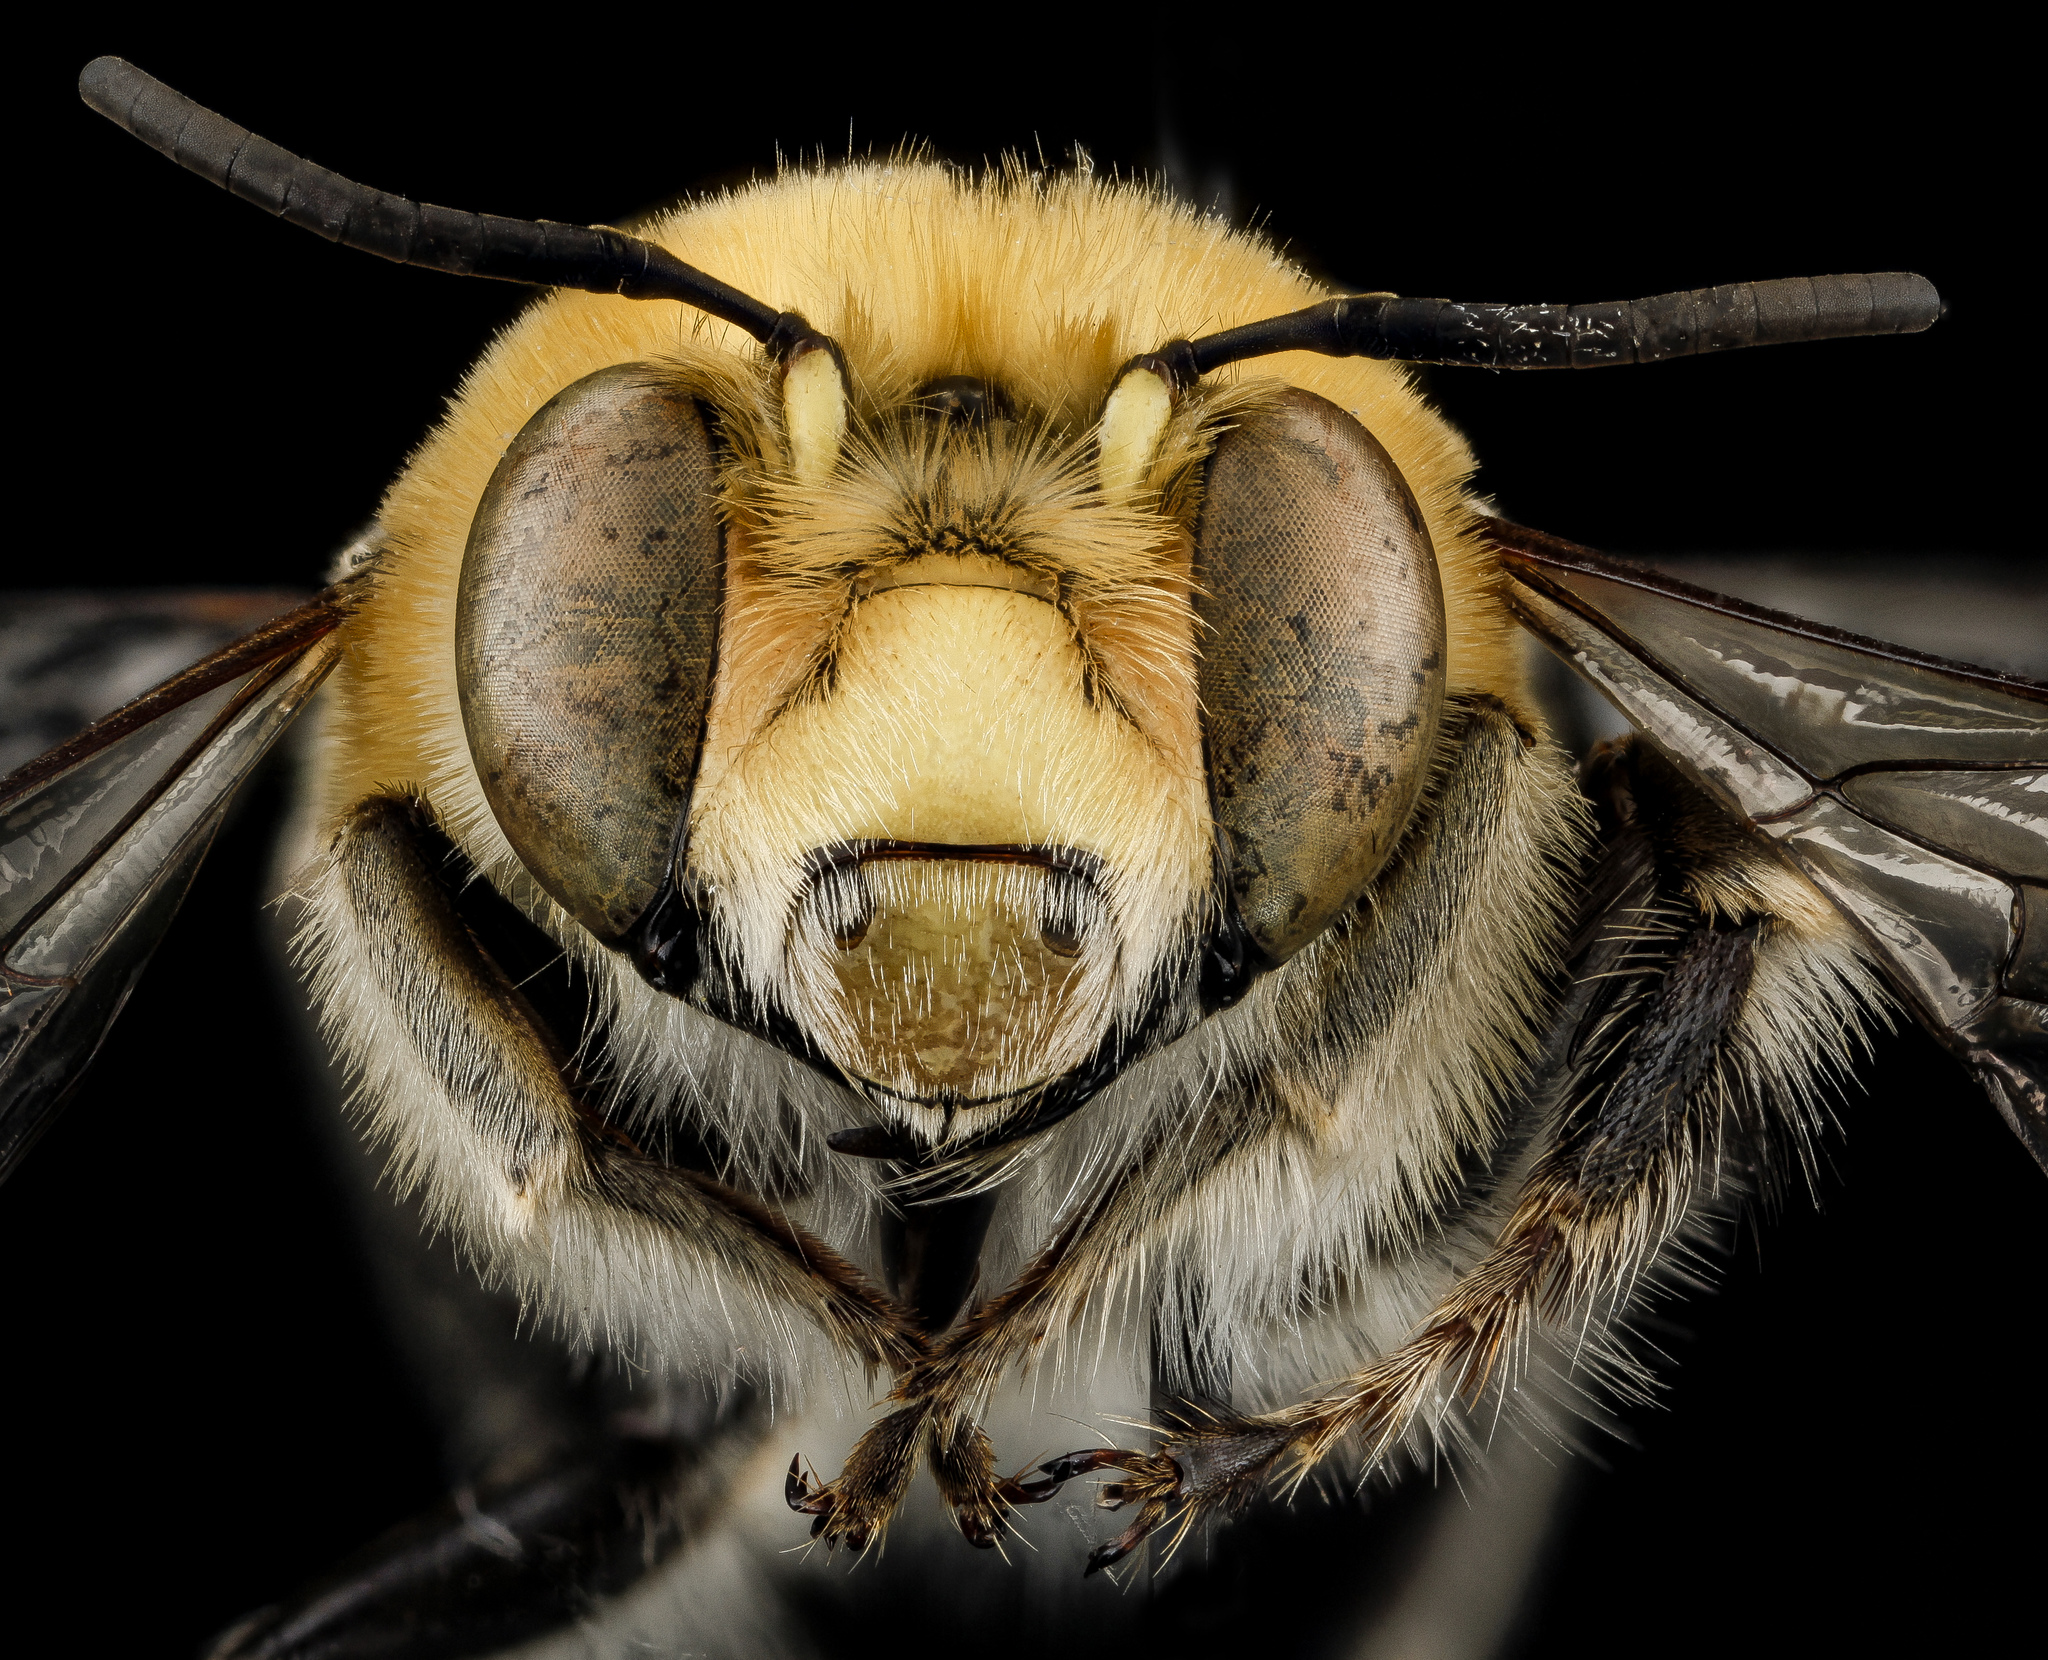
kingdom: Animalia
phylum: Arthropoda
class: Insecta
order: Hymenoptera
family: Apidae
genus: Anthophora
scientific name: Anthophora affabilis
